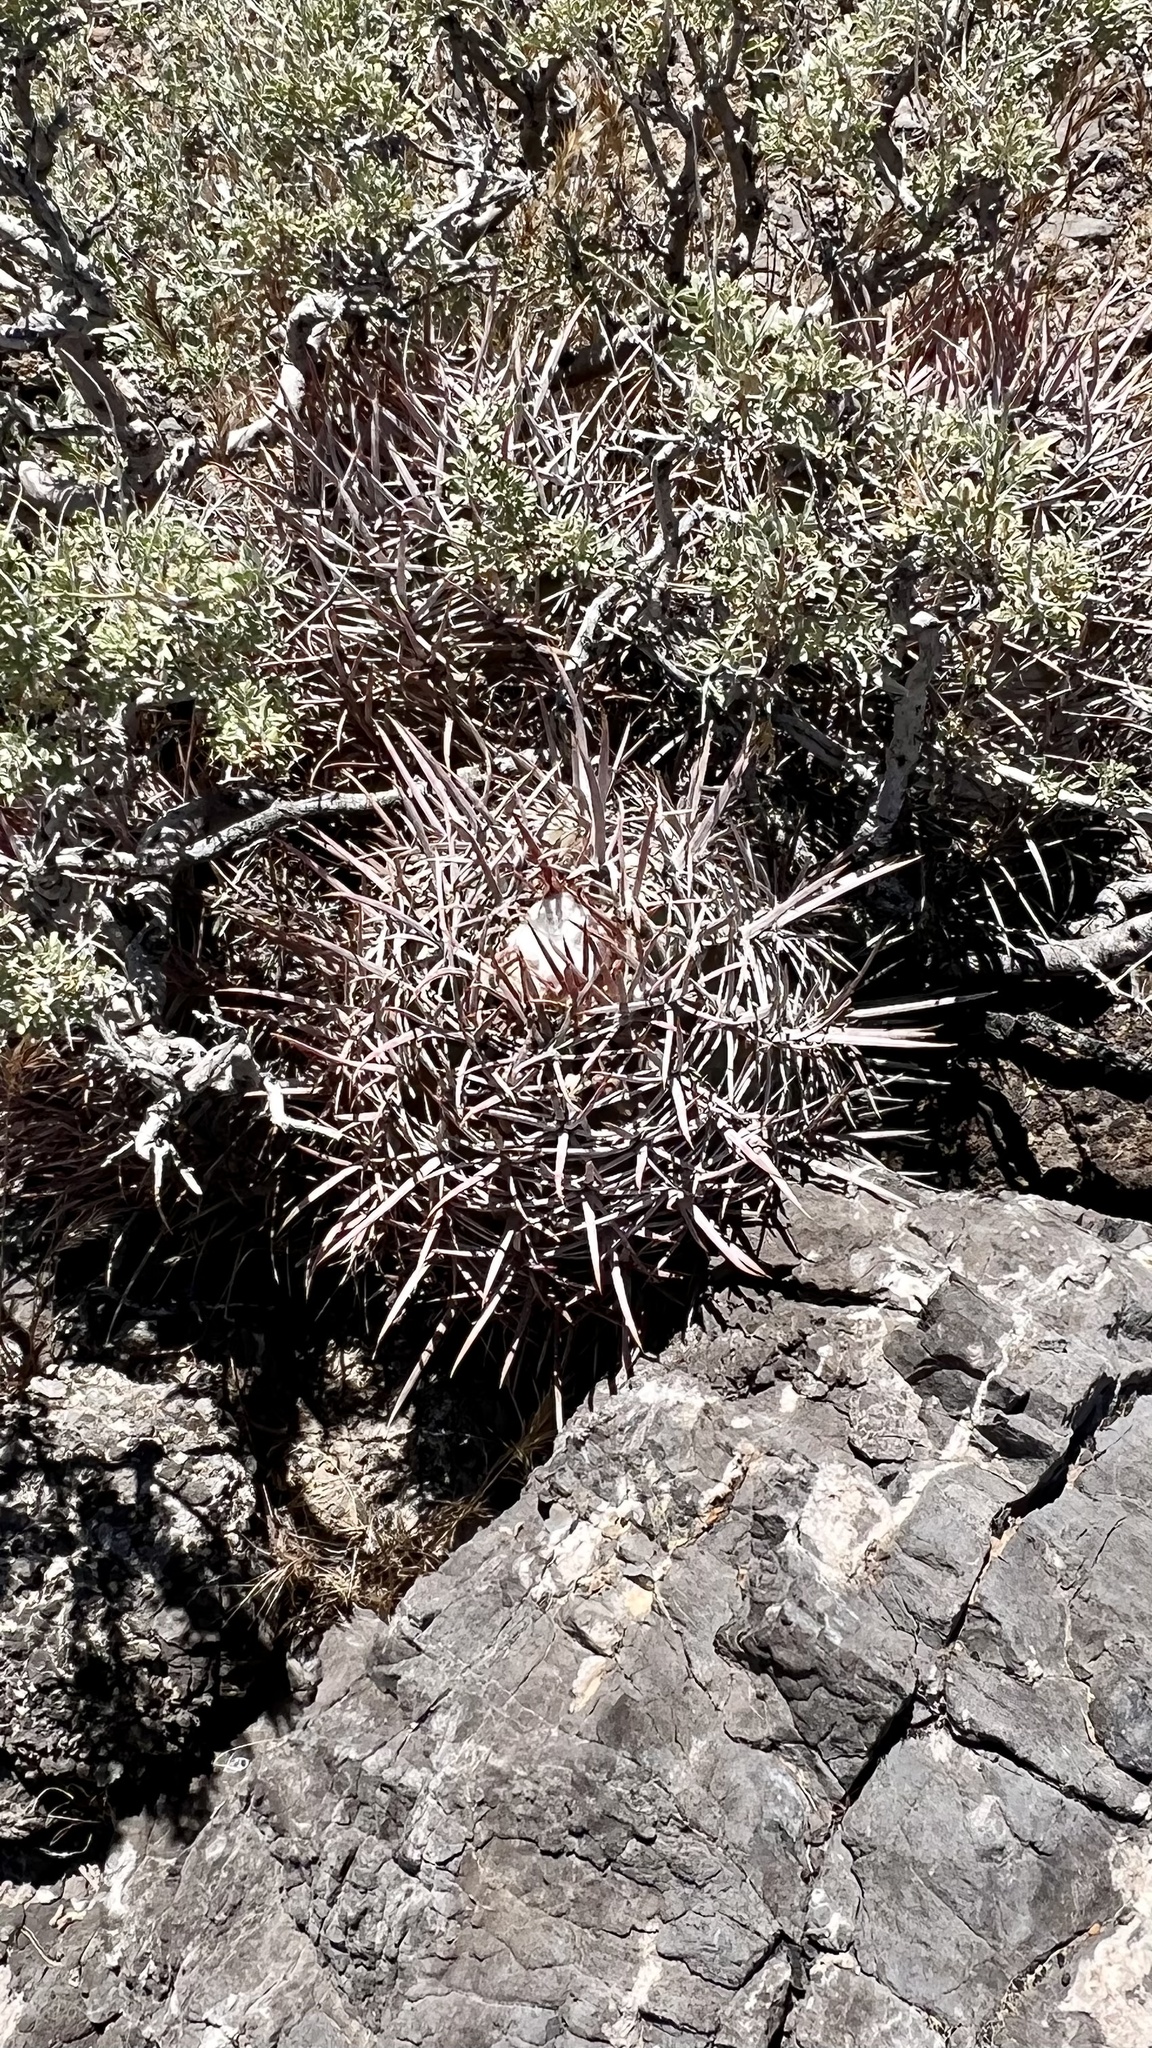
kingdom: Plantae
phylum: Tracheophyta
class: Magnoliopsida
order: Caryophyllales
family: Cactaceae
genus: Echinocactus
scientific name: Echinocactus polycephalus
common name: Cottontop cactus
